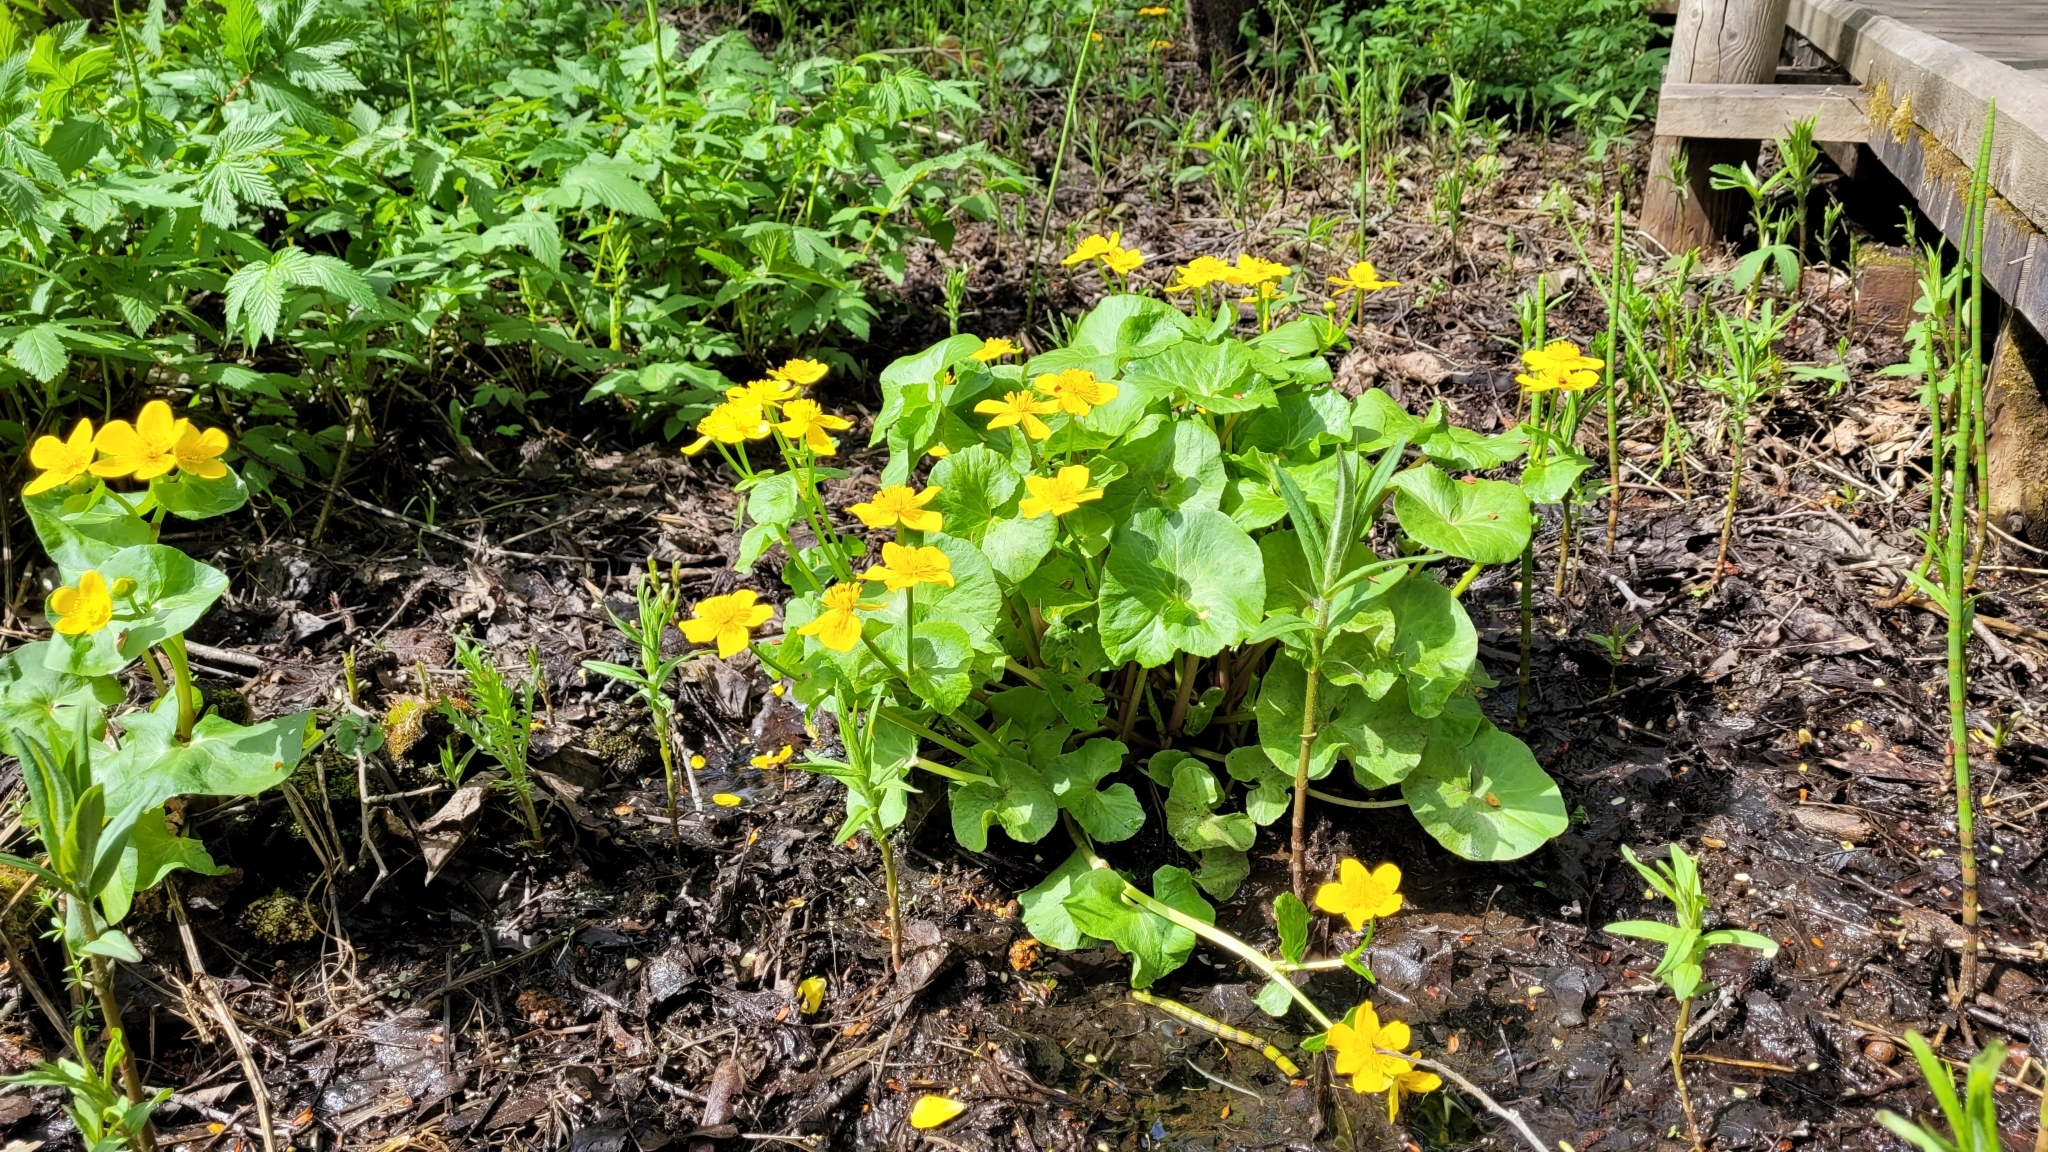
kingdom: Plantae
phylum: Tracheophyta
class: Magnoliopsida
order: Ranunculales
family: Ranunculaceae
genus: Caltha
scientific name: Caltha palustris
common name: Marsh marigold
